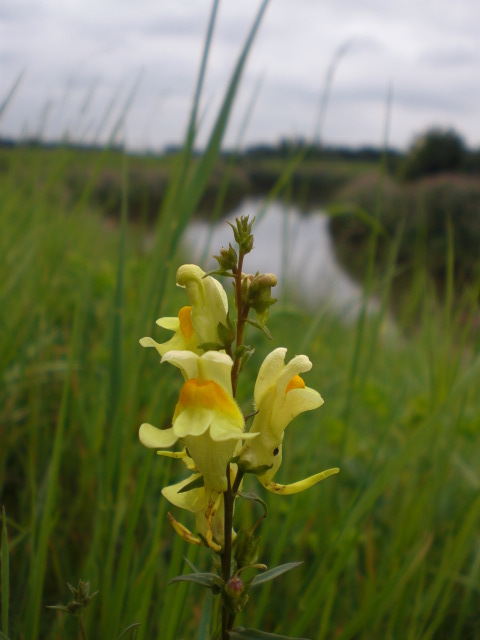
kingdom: Plantae
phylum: Tracheophyta
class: Magnoliopsida
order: Lamiales
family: Plantaginaceae
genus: Linaria
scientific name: Linaria vulgaris
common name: Butter and eggs
